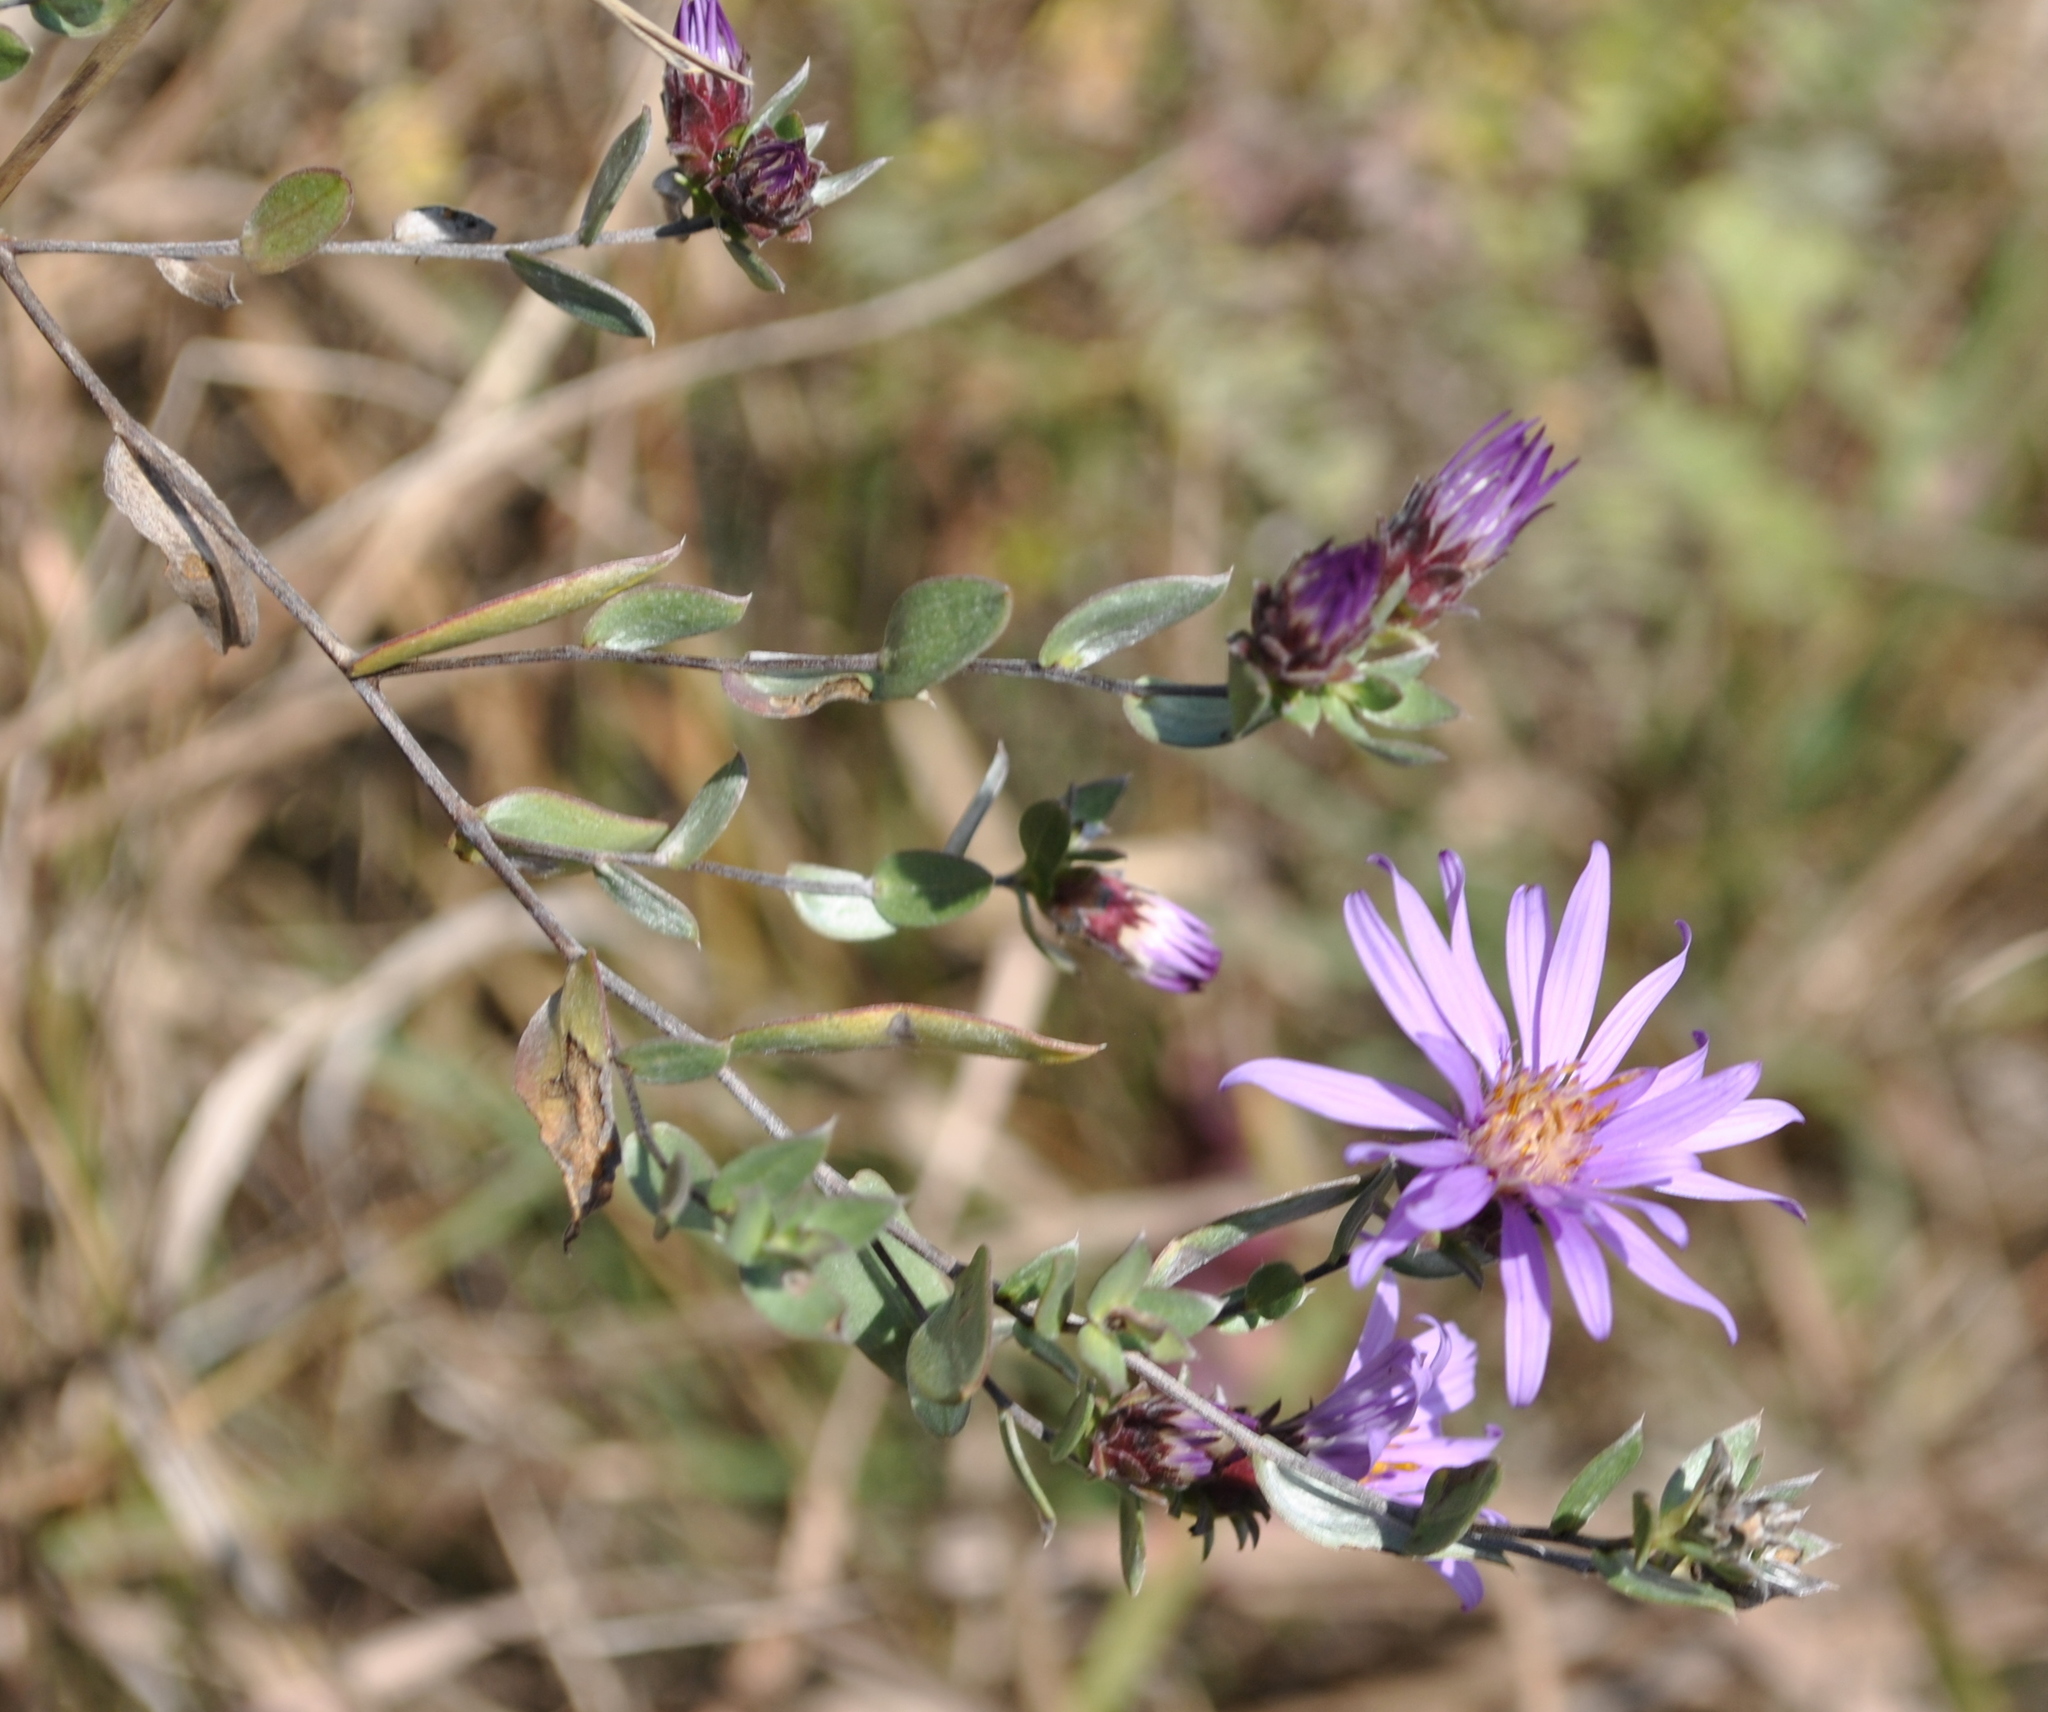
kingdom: Plantae
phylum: Tracheophyta
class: Magnoliopsida
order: Asterales
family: Asteraceae
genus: Symphyotrichum
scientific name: Symphyotrichum sericeum
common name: Silky aster
